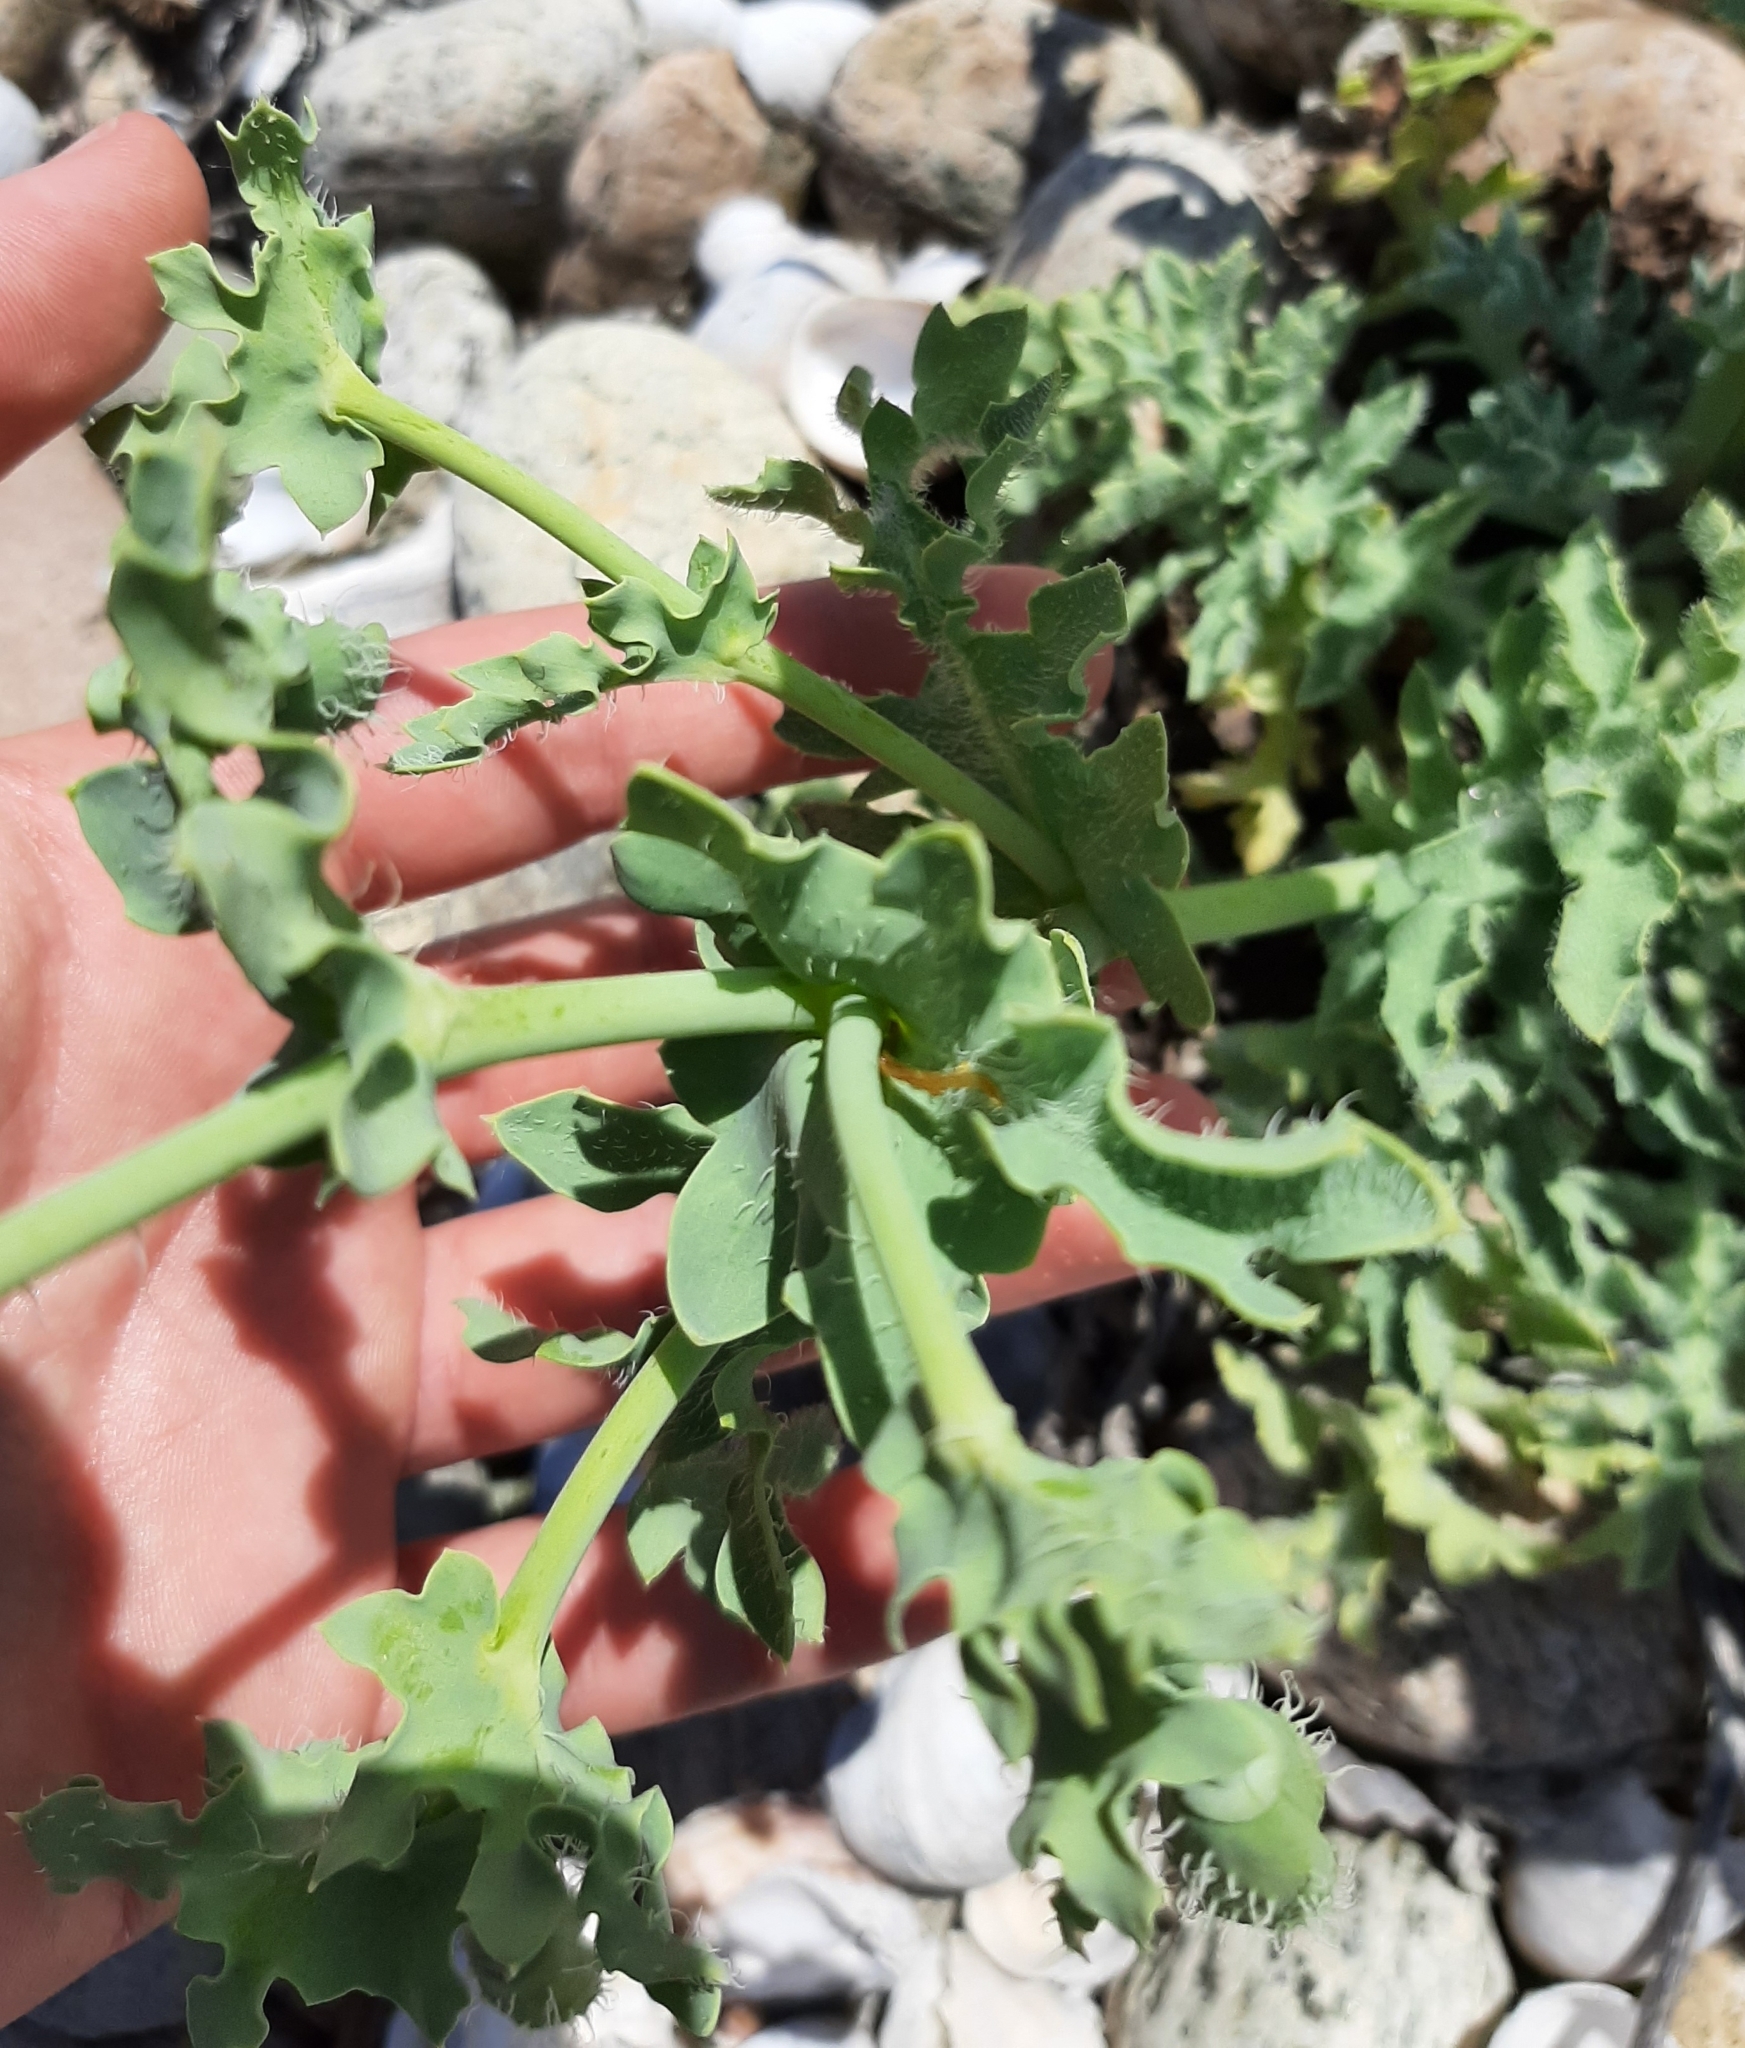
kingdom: Plantae
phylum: Tracheophyta
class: Magnoliopsida
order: Ranunculales
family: Papaveraceae
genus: Glaucium
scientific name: Glaucium flavum
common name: Yellow horned-poppy
